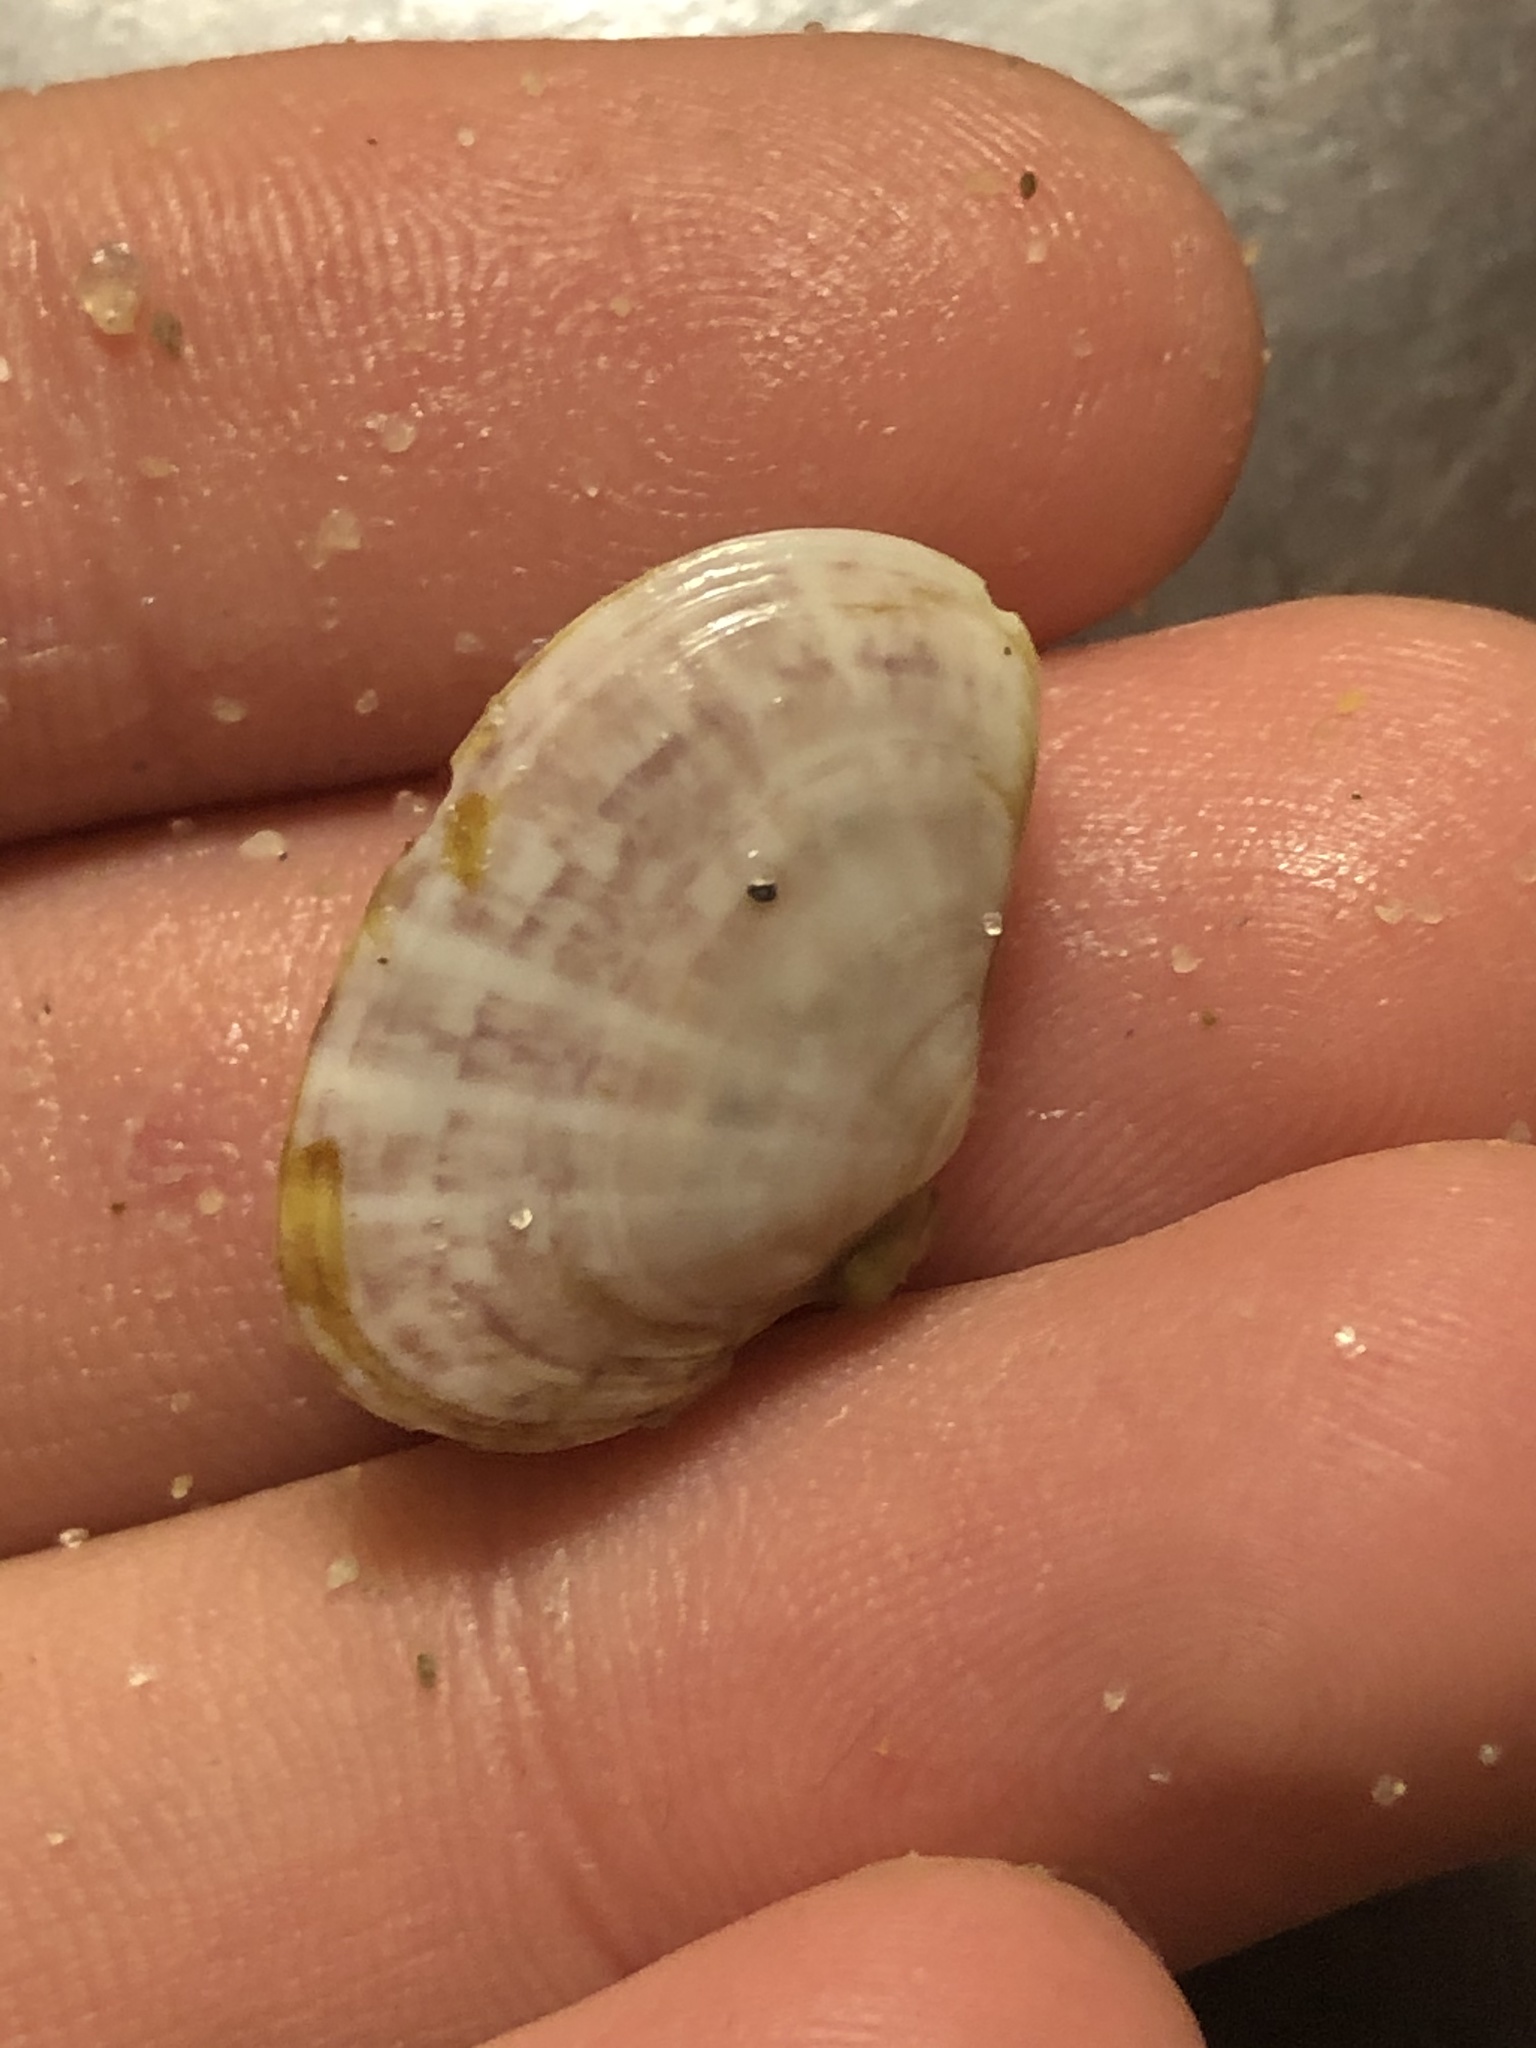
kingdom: Animalia
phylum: Mollusca
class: Bivalvia
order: Cardiida
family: Psammobiidae
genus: Gari
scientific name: Gari californica
